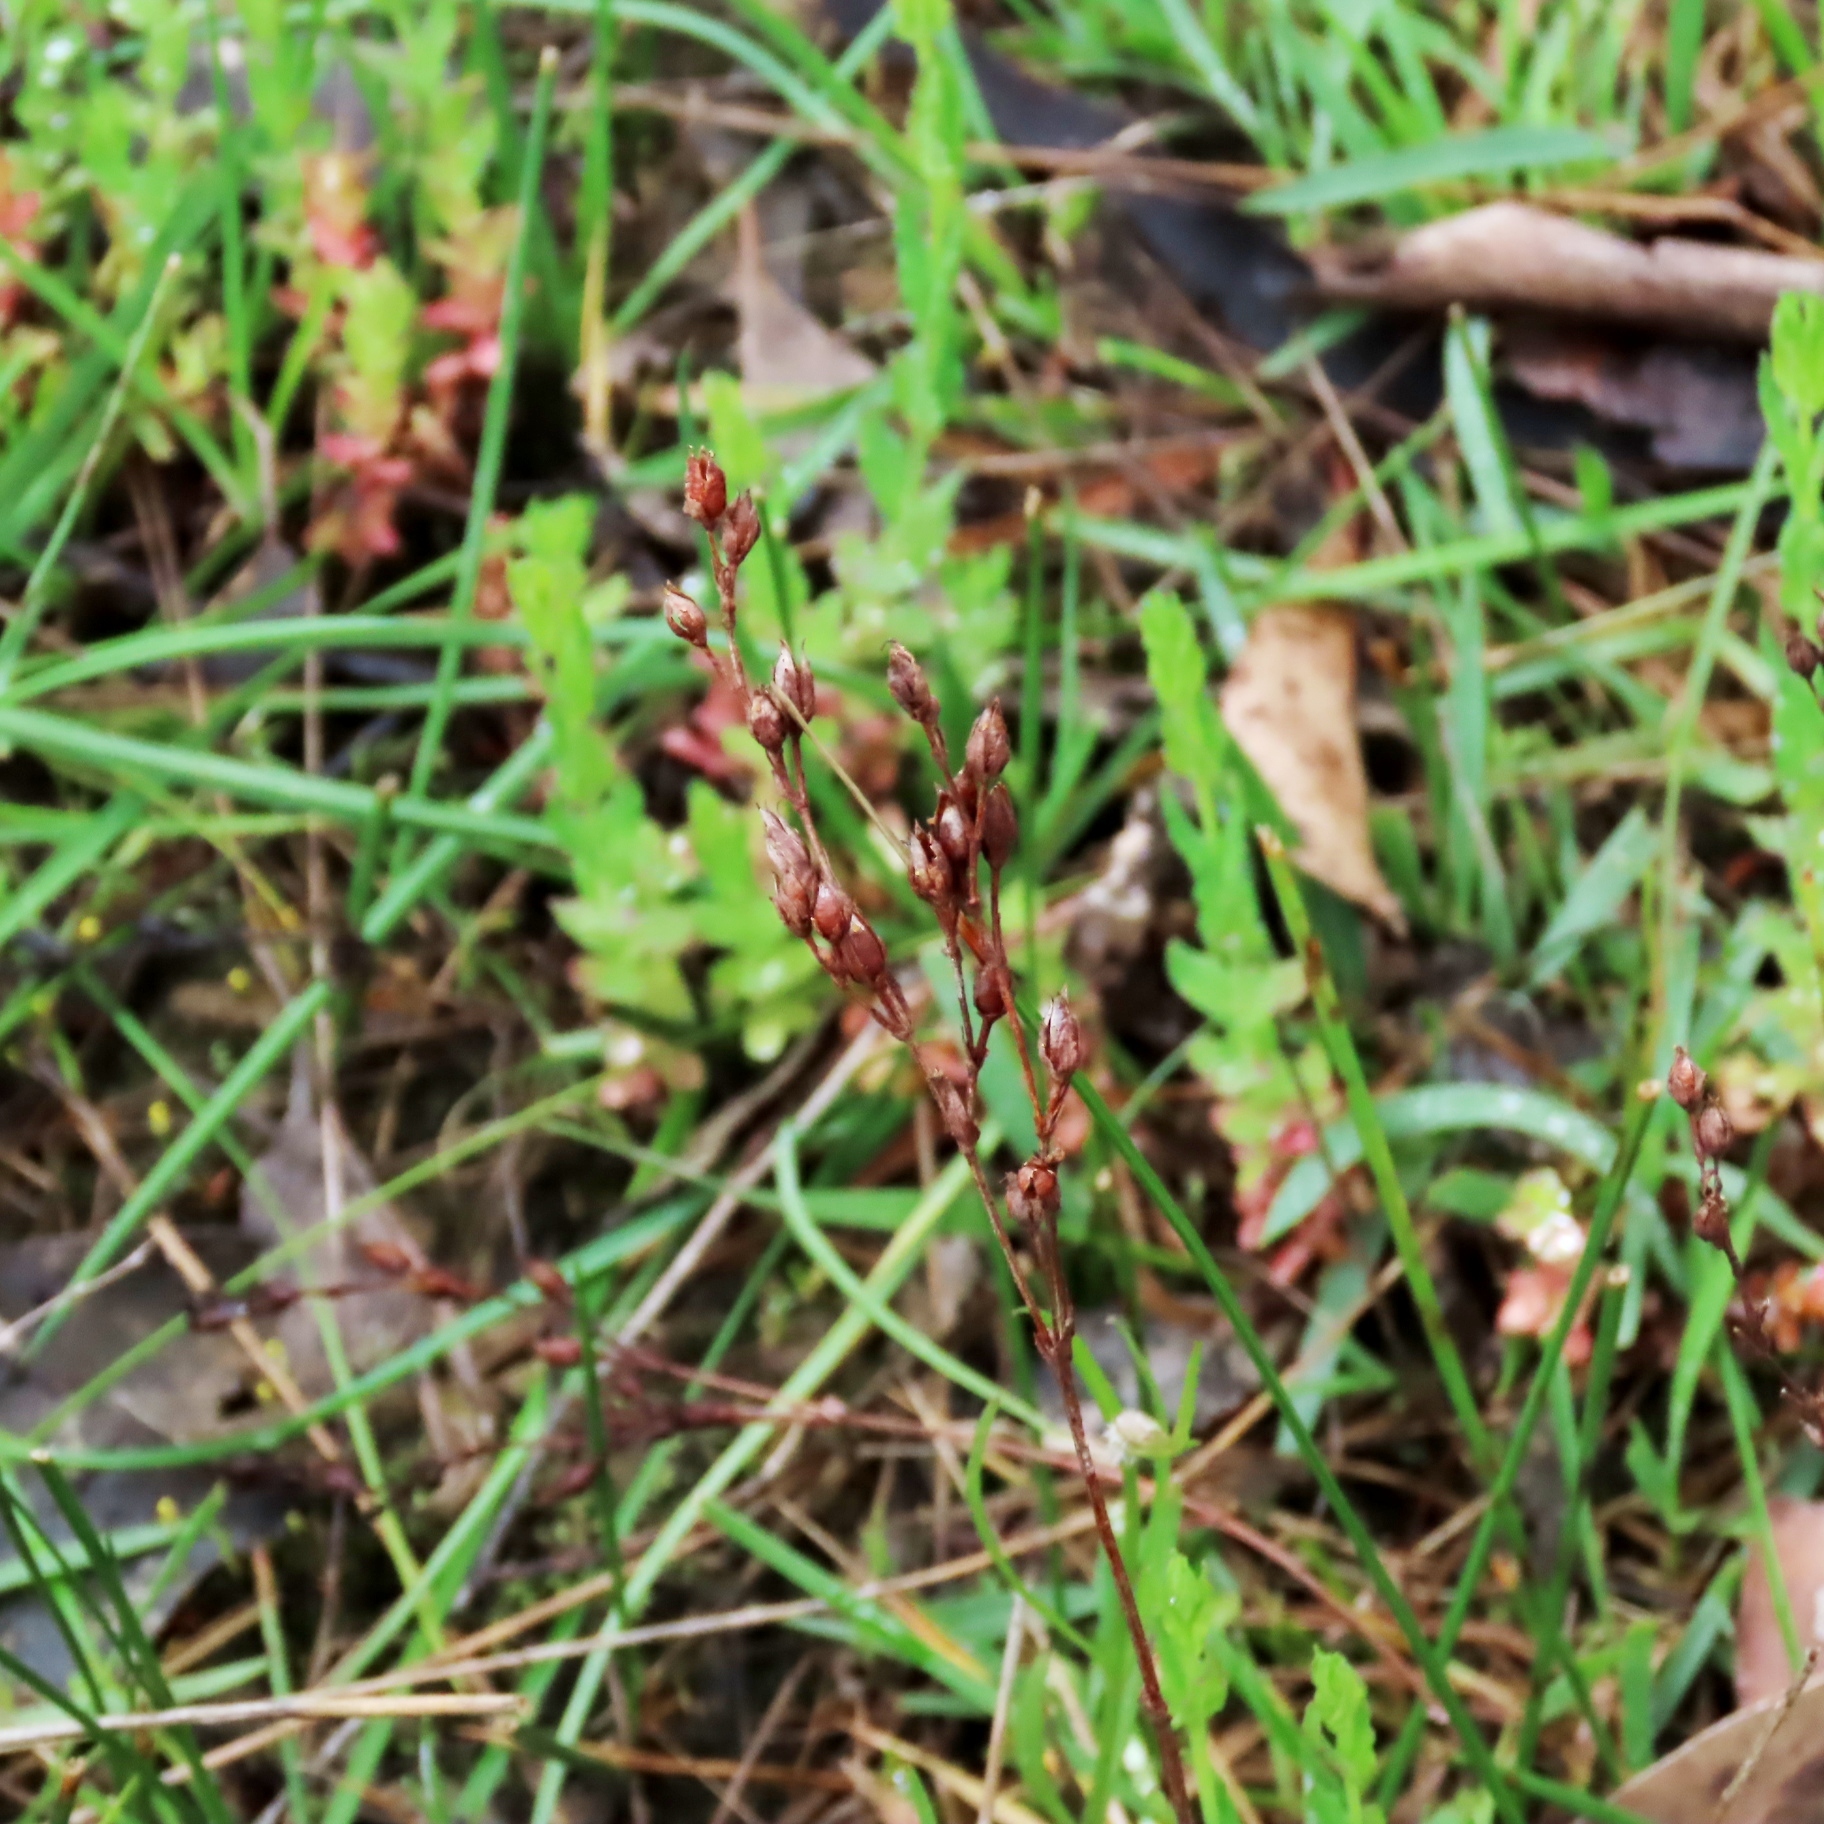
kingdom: Plantae
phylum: Tracheophyta
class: Magnoliopsida
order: Malpighiales
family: Hypericaceae
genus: Hypericum
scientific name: Hypericum gramineum
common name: Grassy st. johnswort
